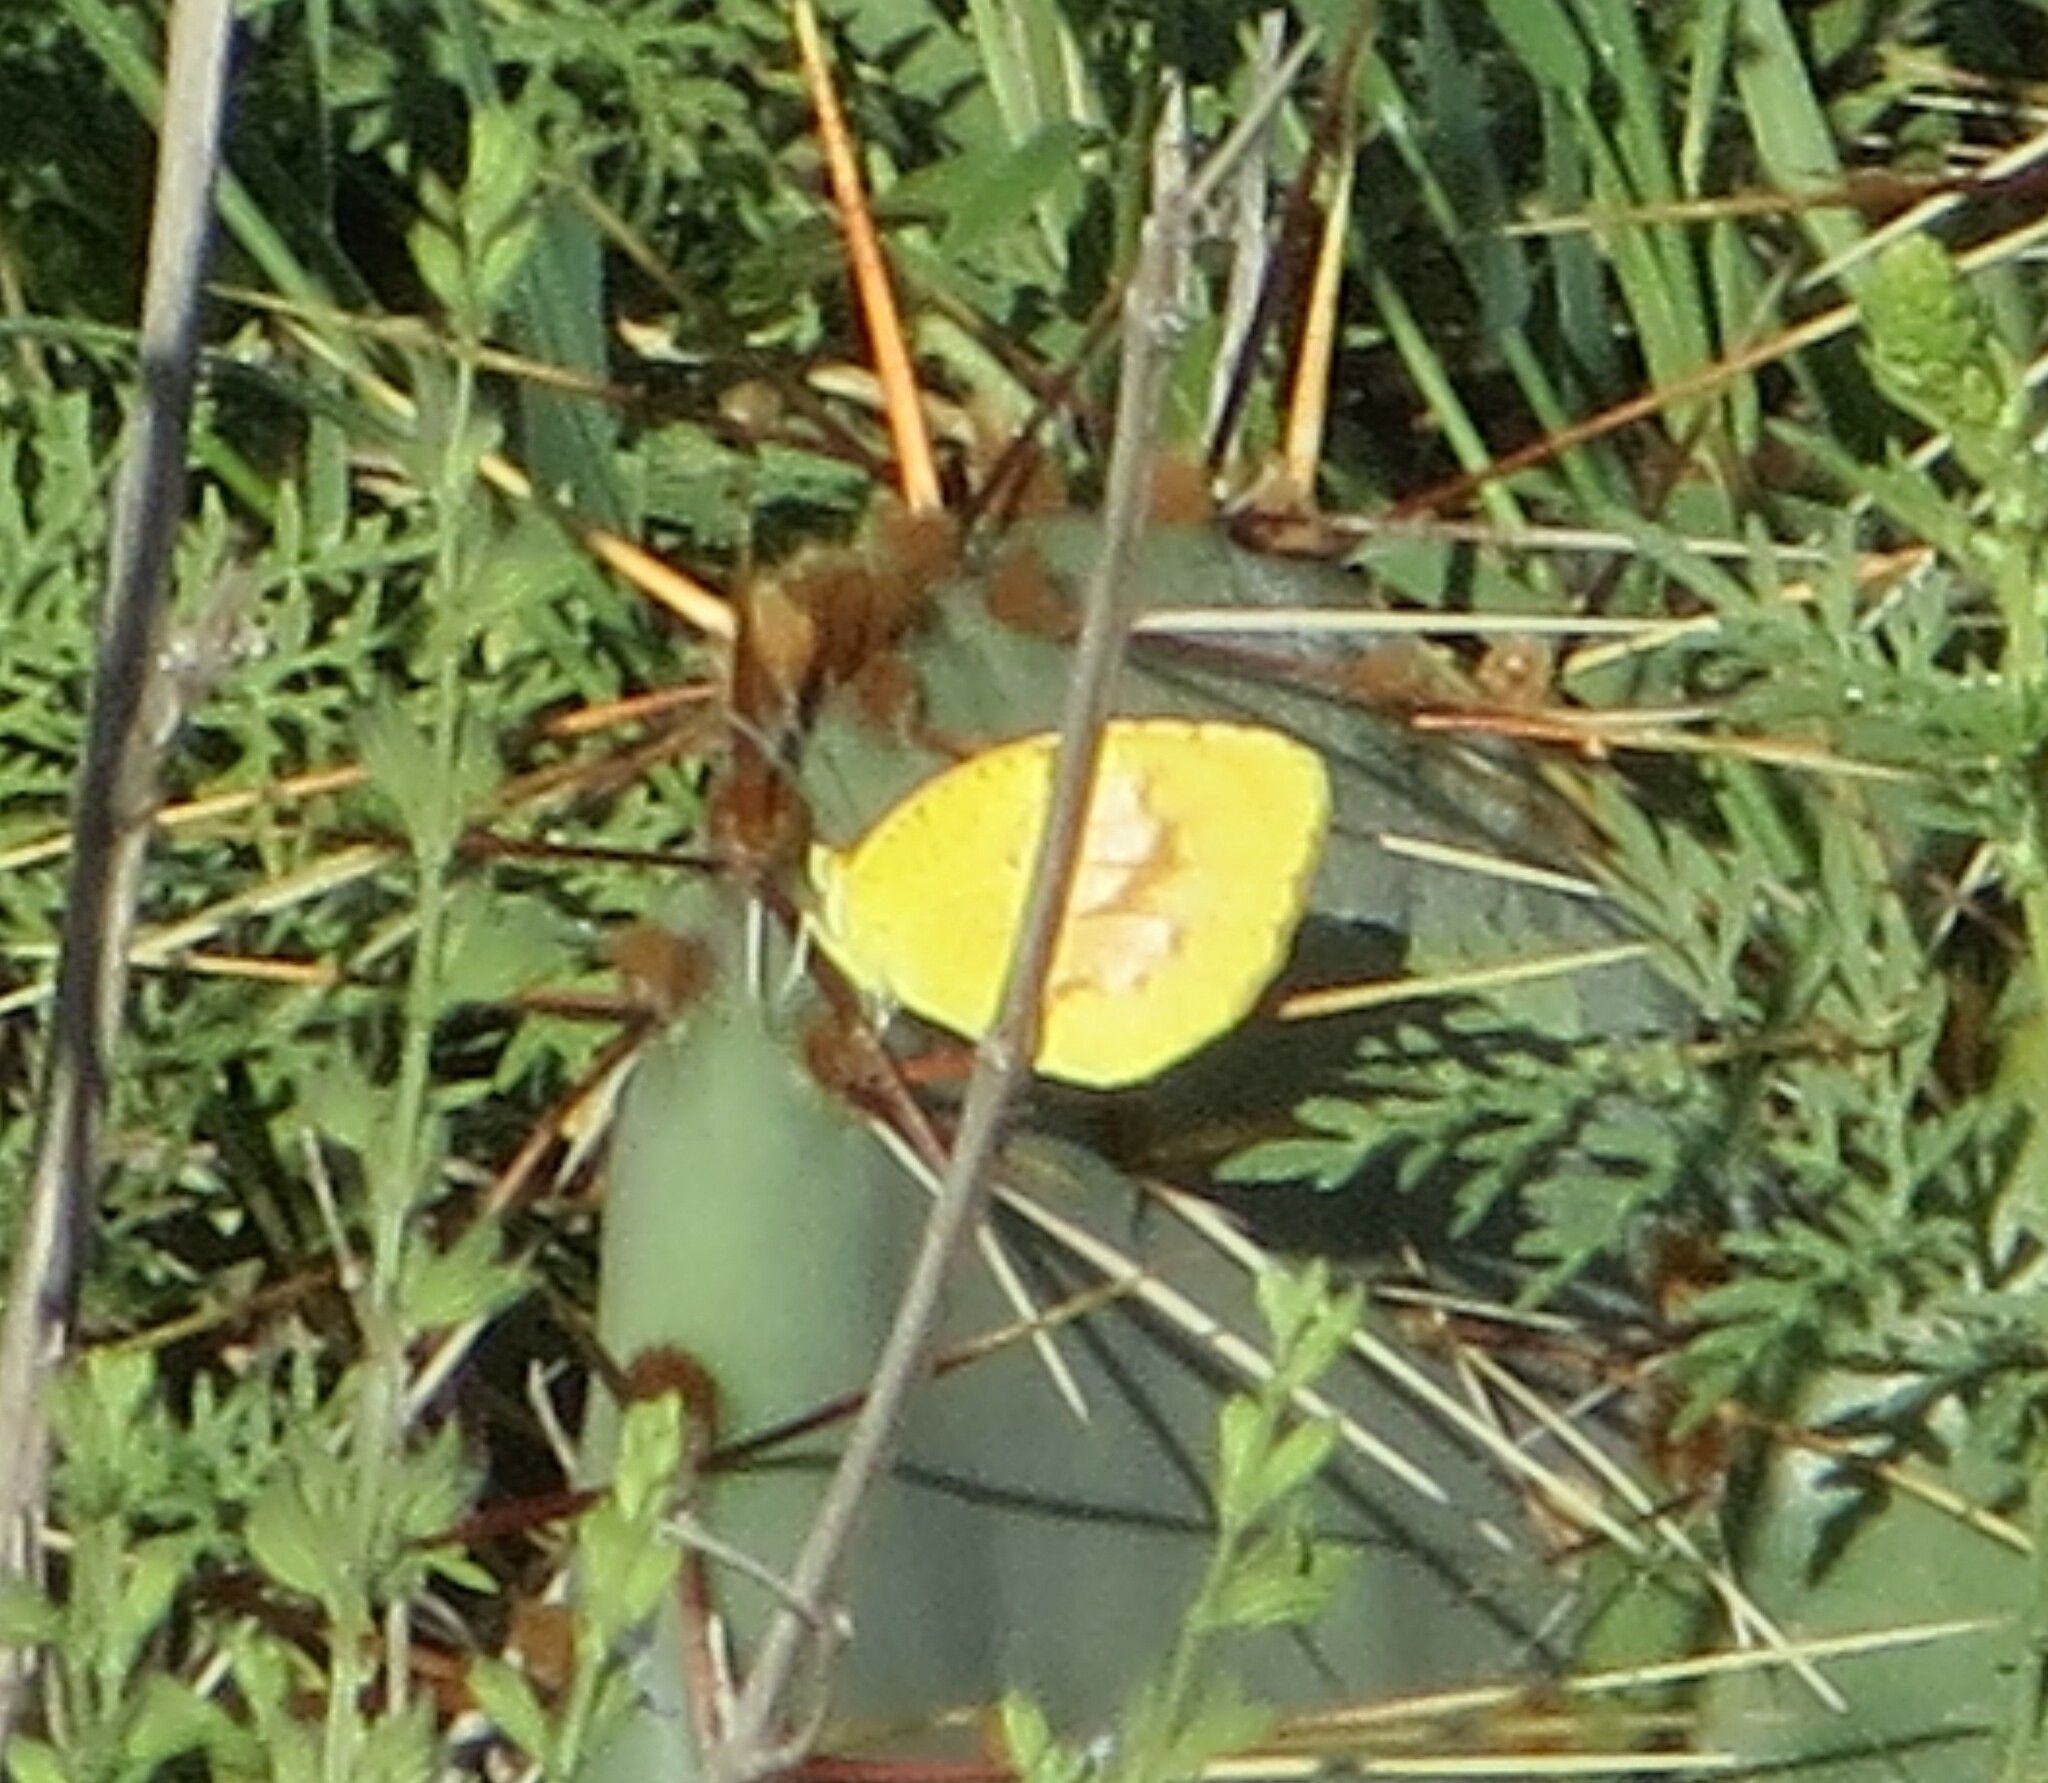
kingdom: Animalia
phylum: Arthropoda
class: Insecta
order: Lepidoptera
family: Pieridae
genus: Abaeis
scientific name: Abaeis nicippe
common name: Sleepy orange
